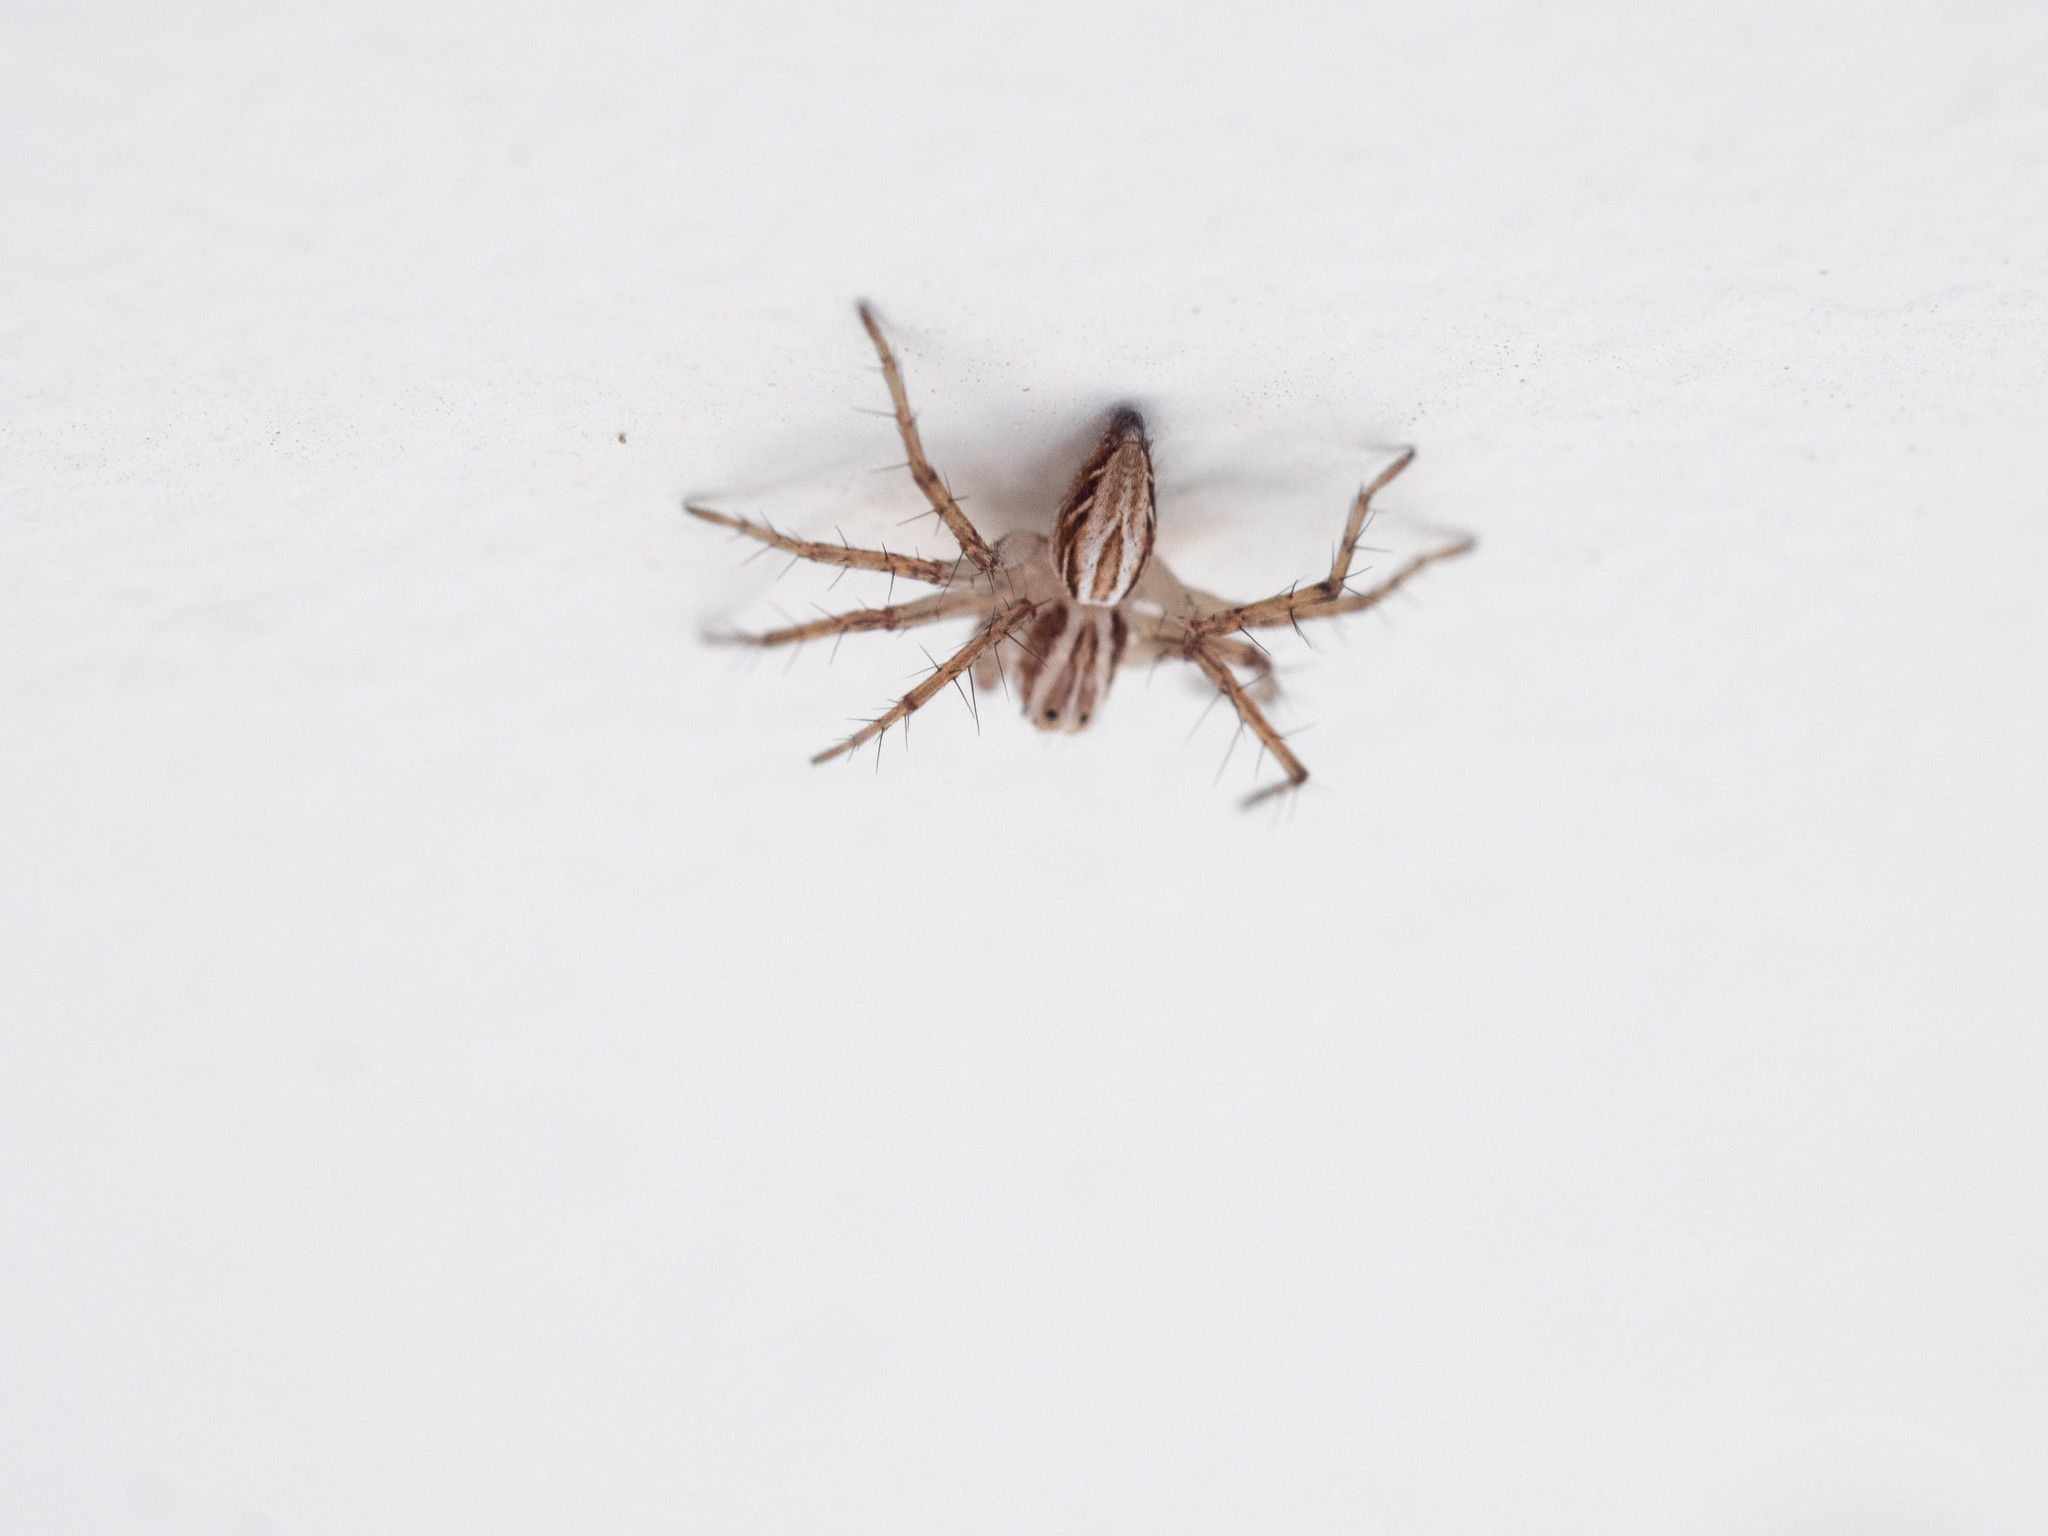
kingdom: Animalia
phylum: Arthropoda
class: Arachnida
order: Araneae
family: Oxyopidae
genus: Oxyopes
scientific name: Oxyopes gracilipes
